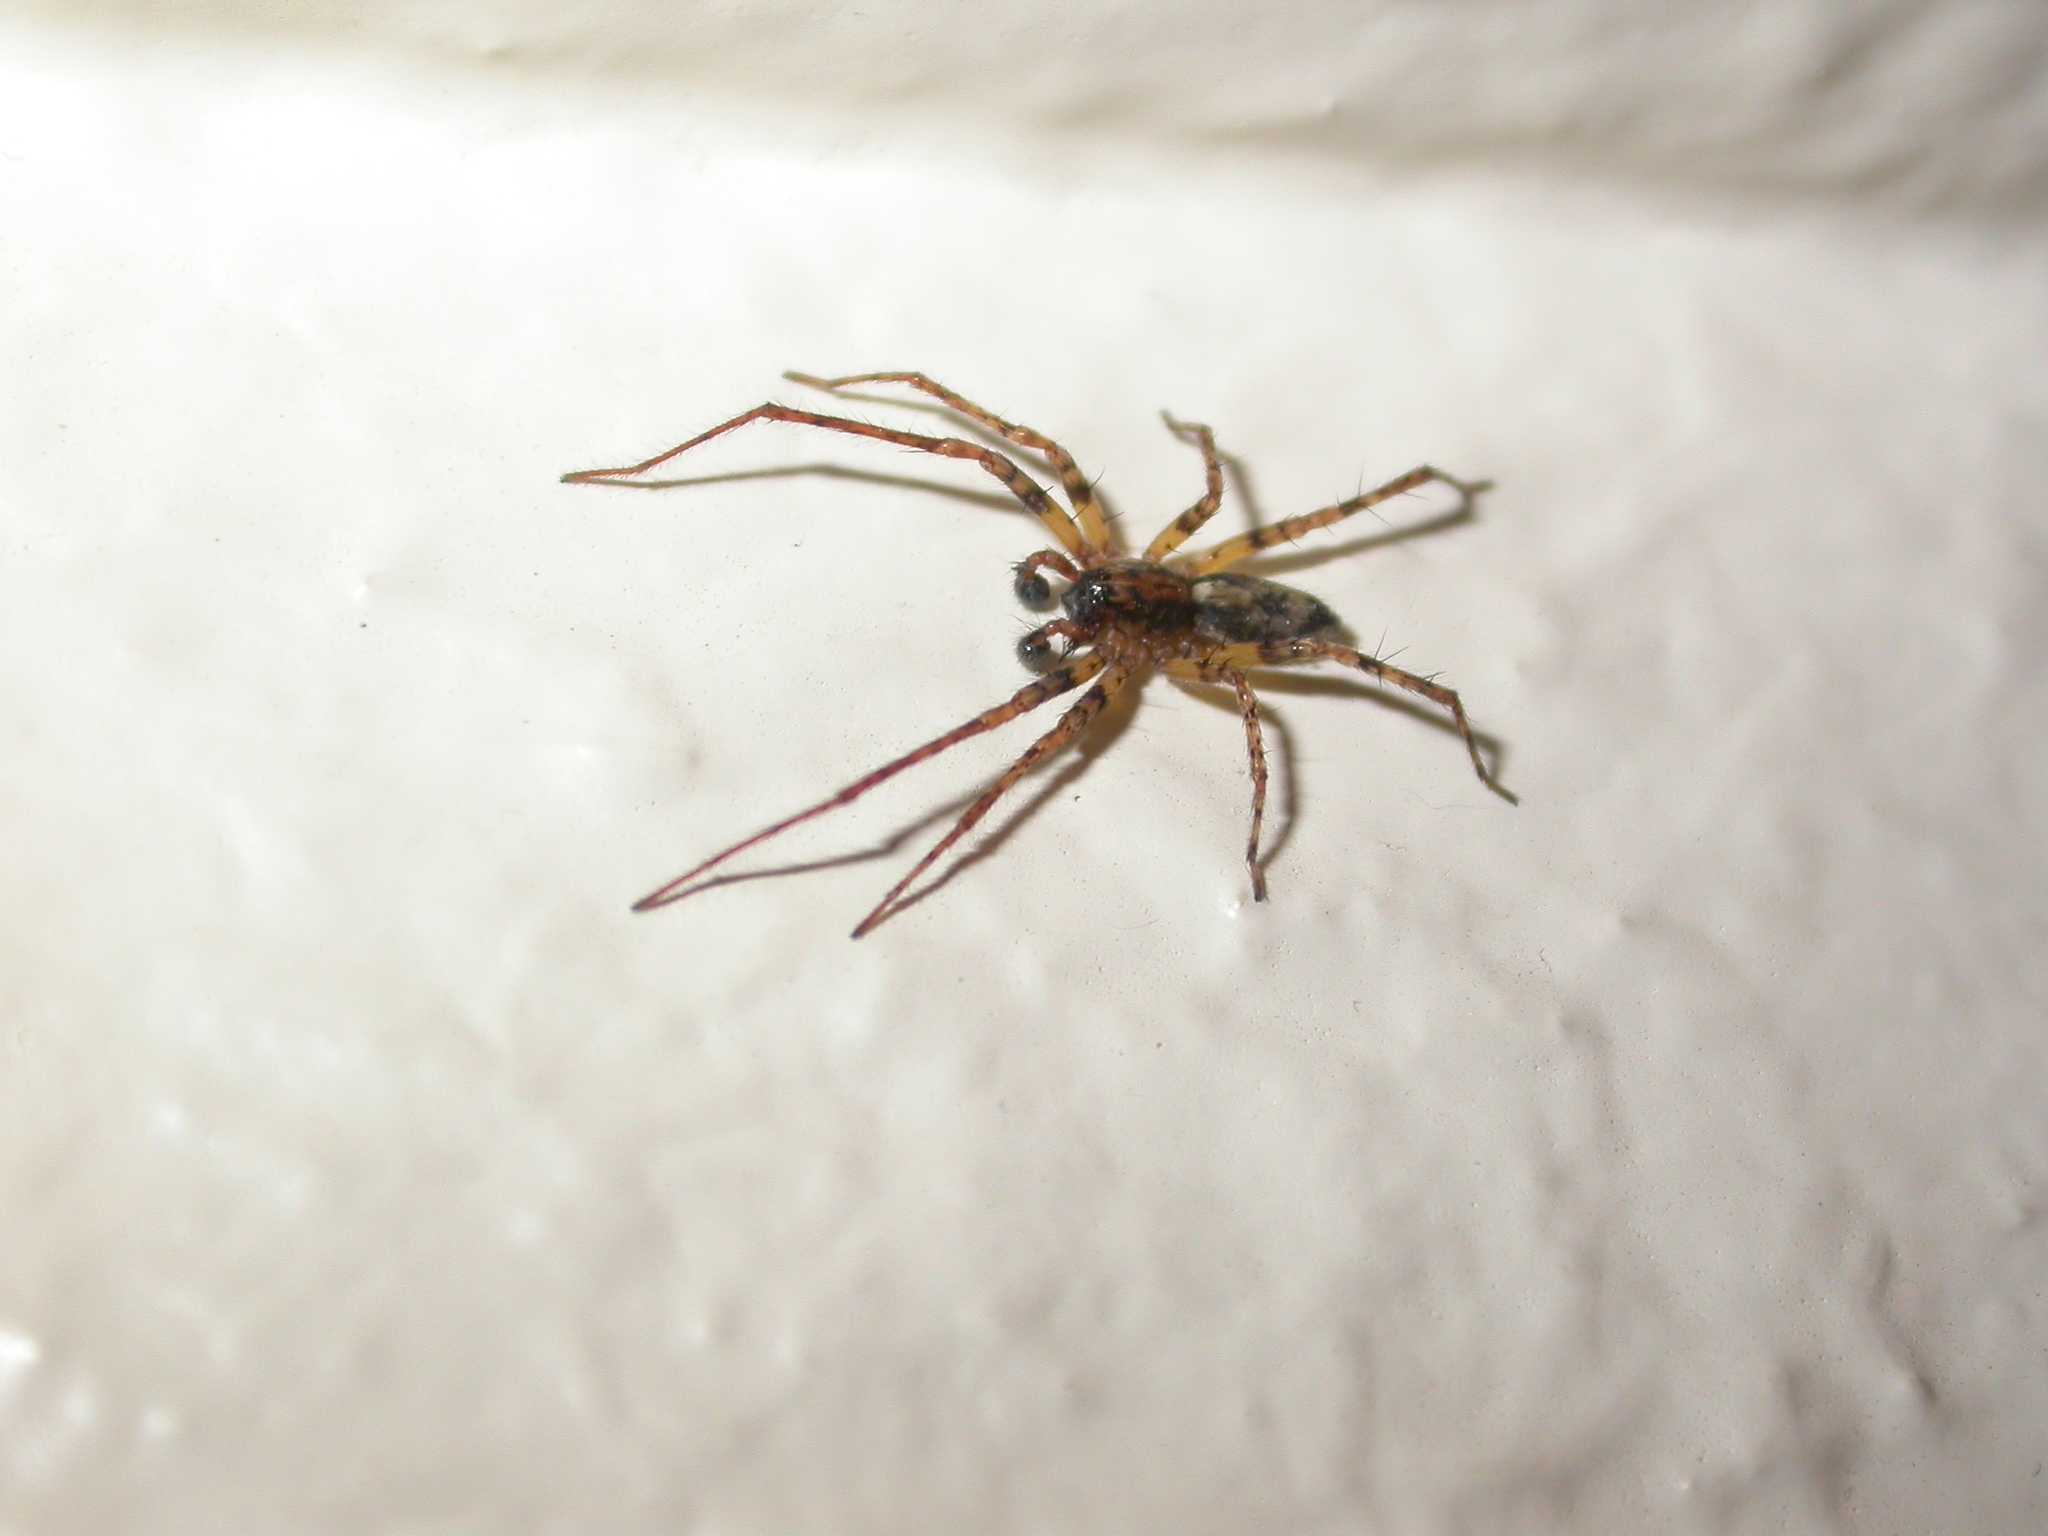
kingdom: Animalia
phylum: Arthropoda
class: Arachnida
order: Araneae
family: Anyphaenidae
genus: Anyphaena
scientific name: Anyphaena accentuata
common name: Buzzing spider
